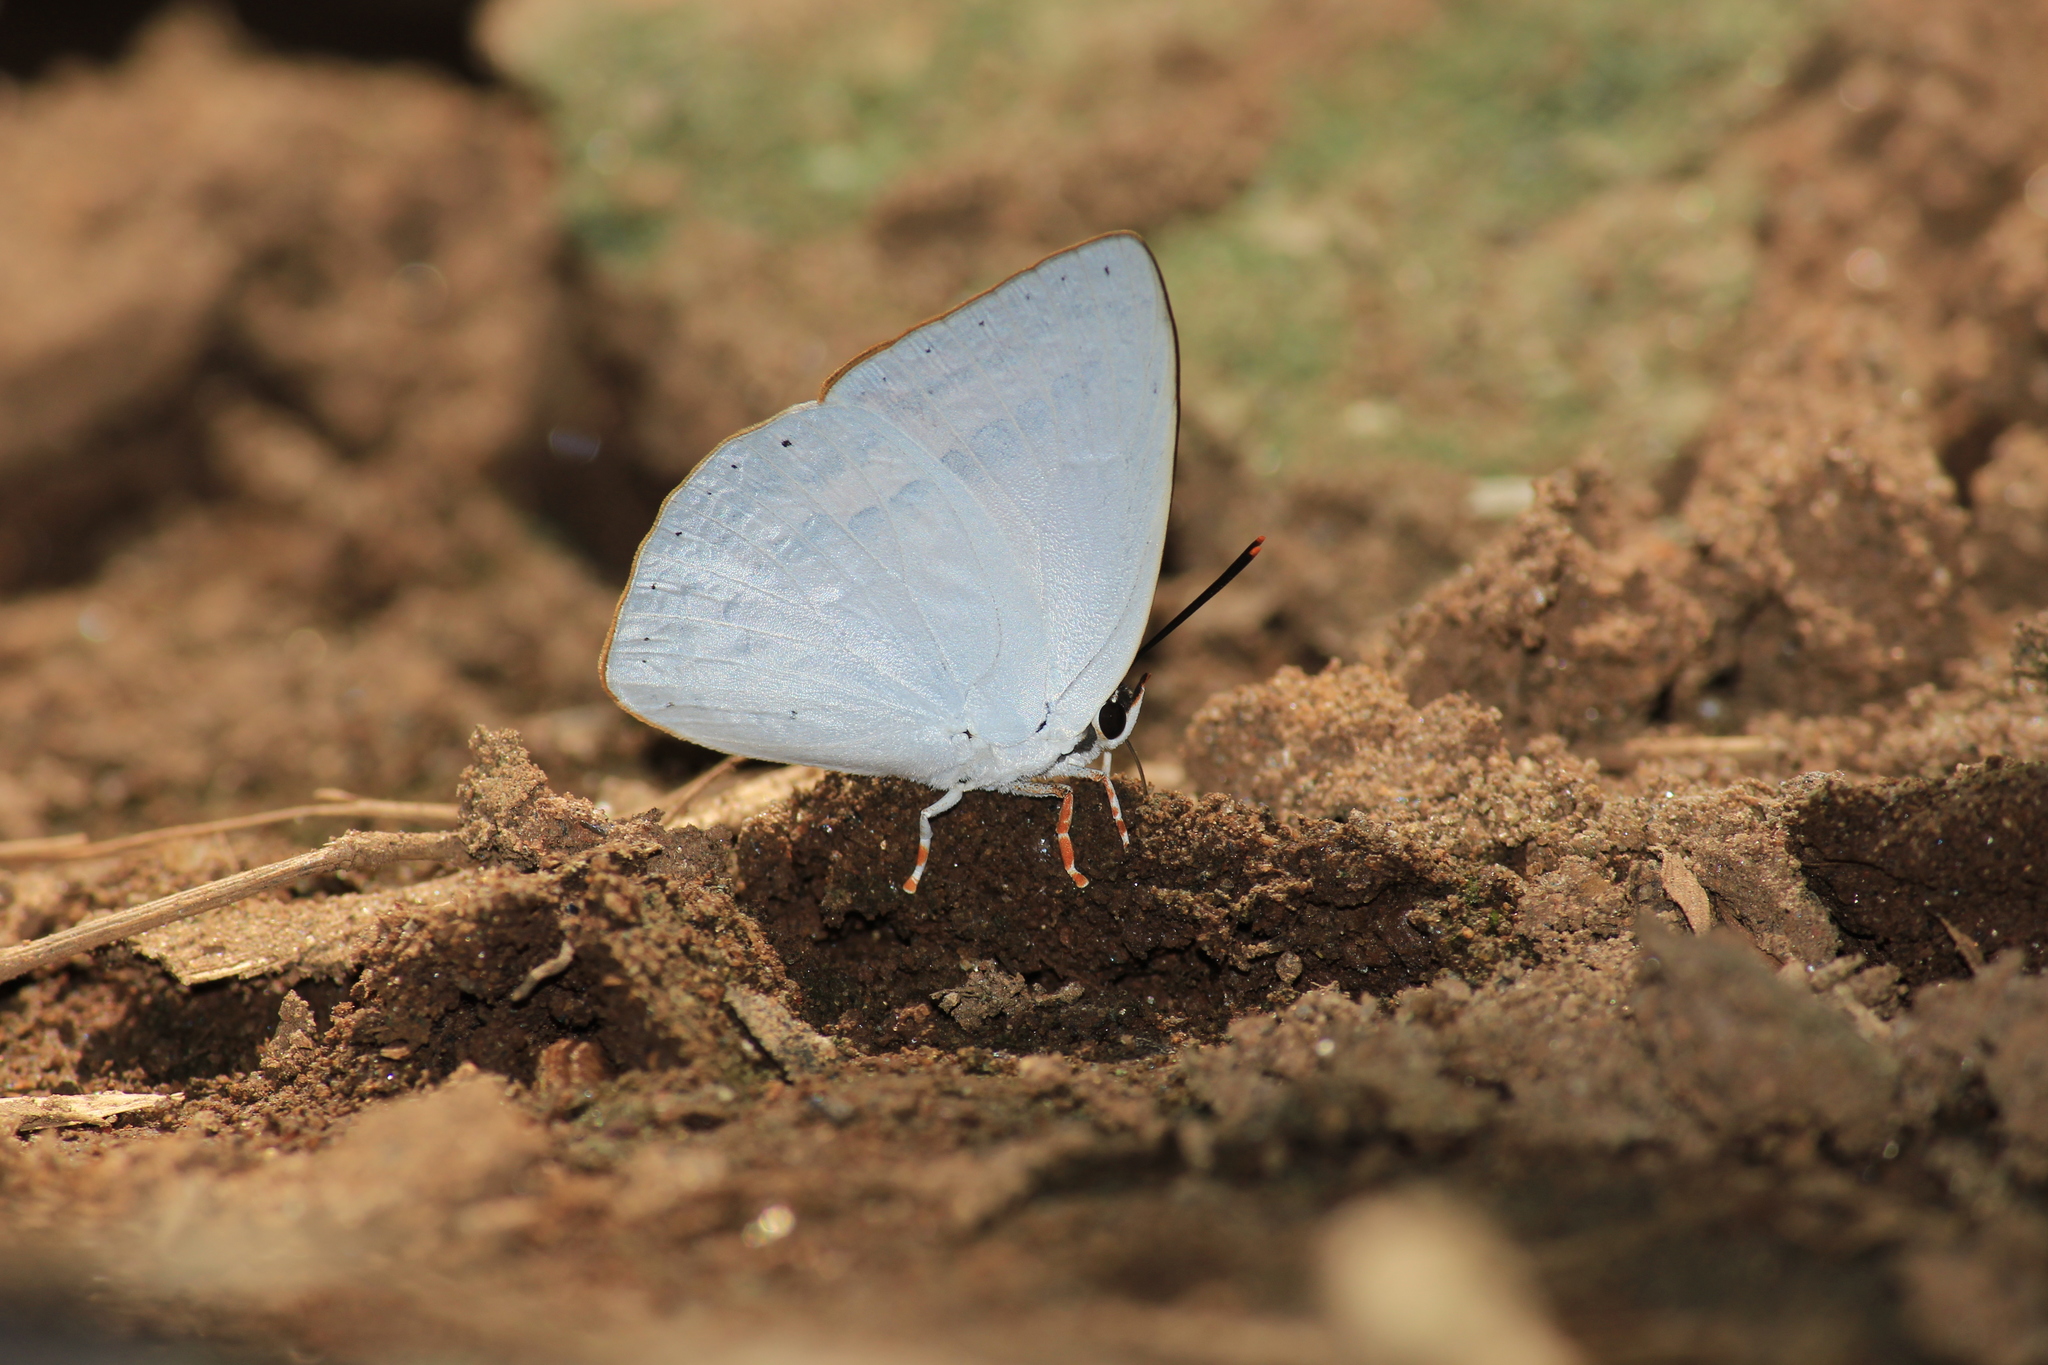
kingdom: Animalia
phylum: Arthropoda
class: Insecta
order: Lepidoptera
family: Lycaenidae
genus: Curetis
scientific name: Curetis thetis
